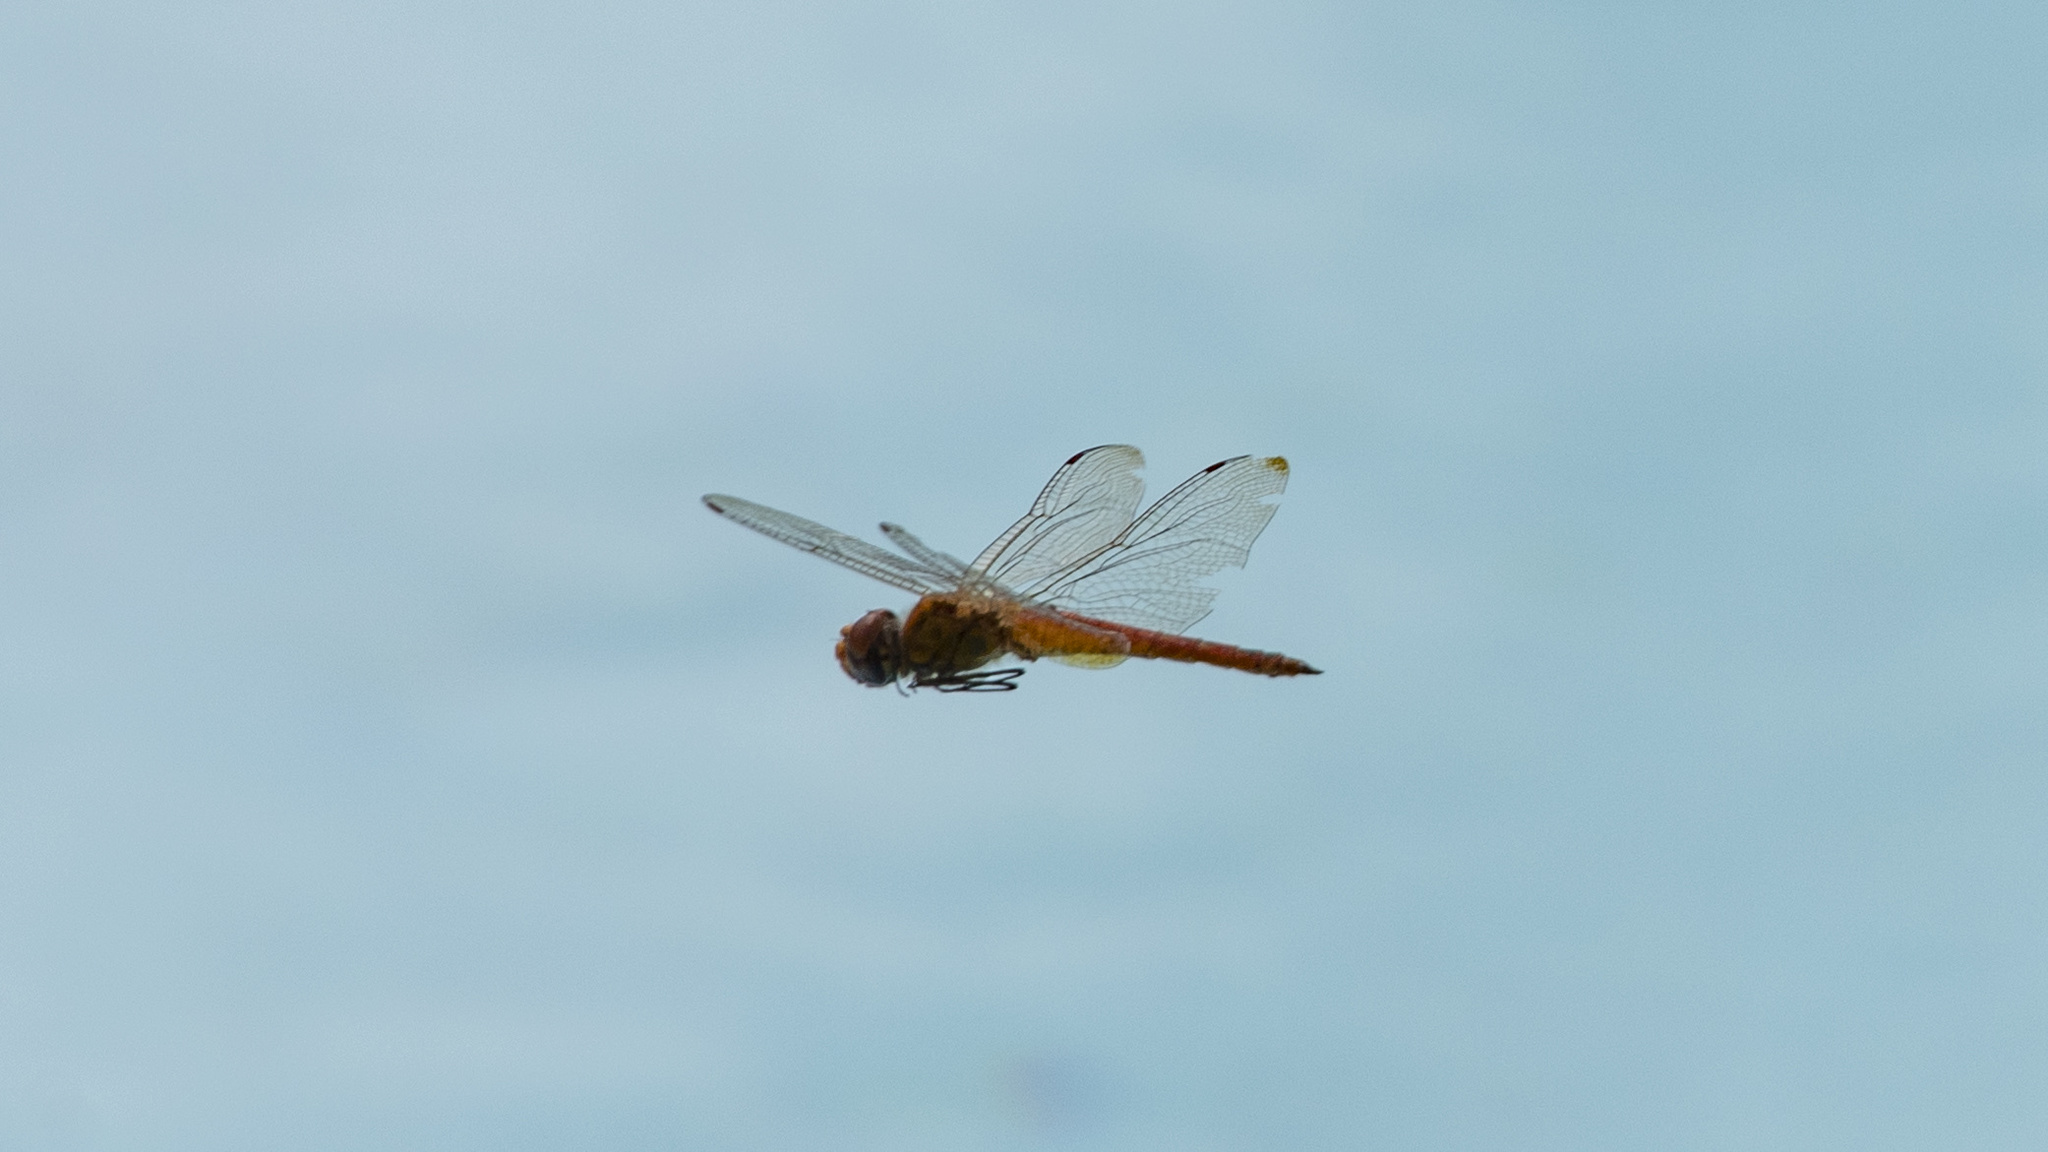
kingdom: Animalia
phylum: Arthropoda
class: Insecta
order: Odonata
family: Libellulidae
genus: Pantala
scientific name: Pantala flavescens
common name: Wandering glider
